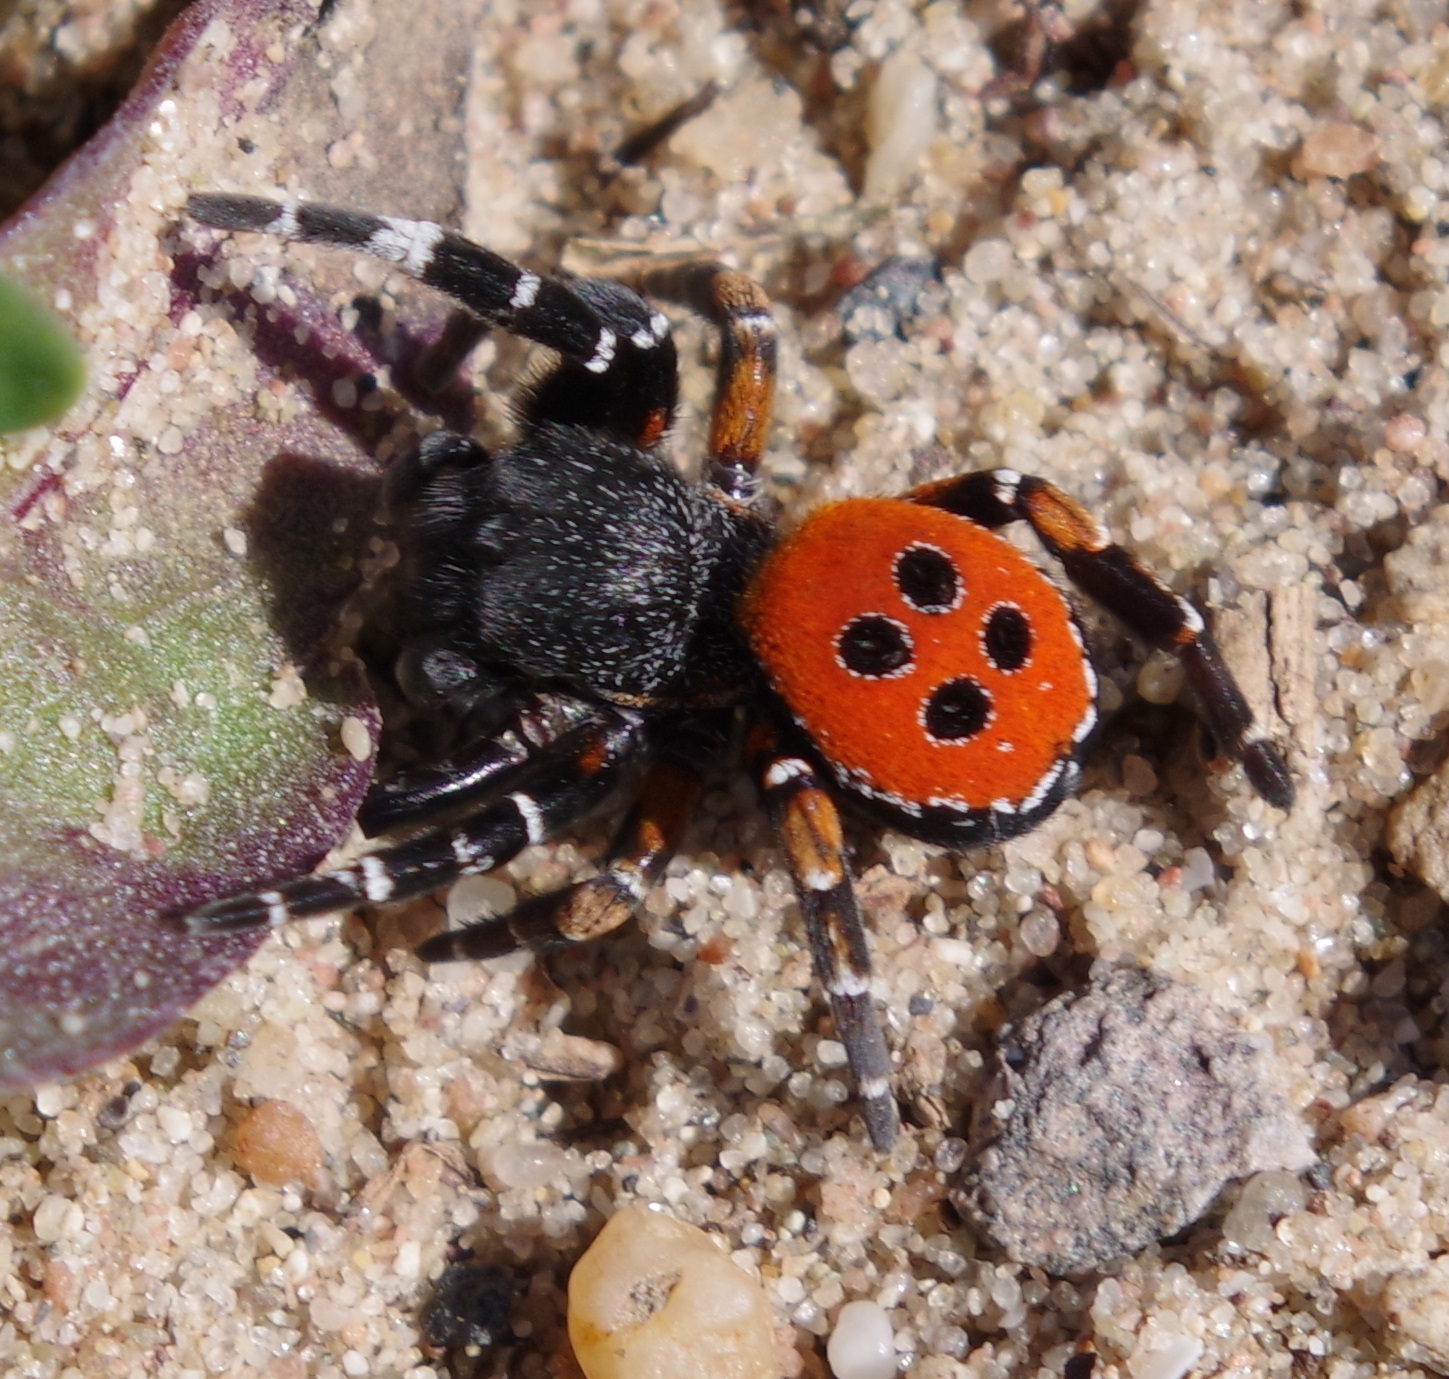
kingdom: Animalia
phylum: Arthropoda
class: Arachnida
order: Araneae
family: Eresidae
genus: Eresus
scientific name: Eresus kollari
